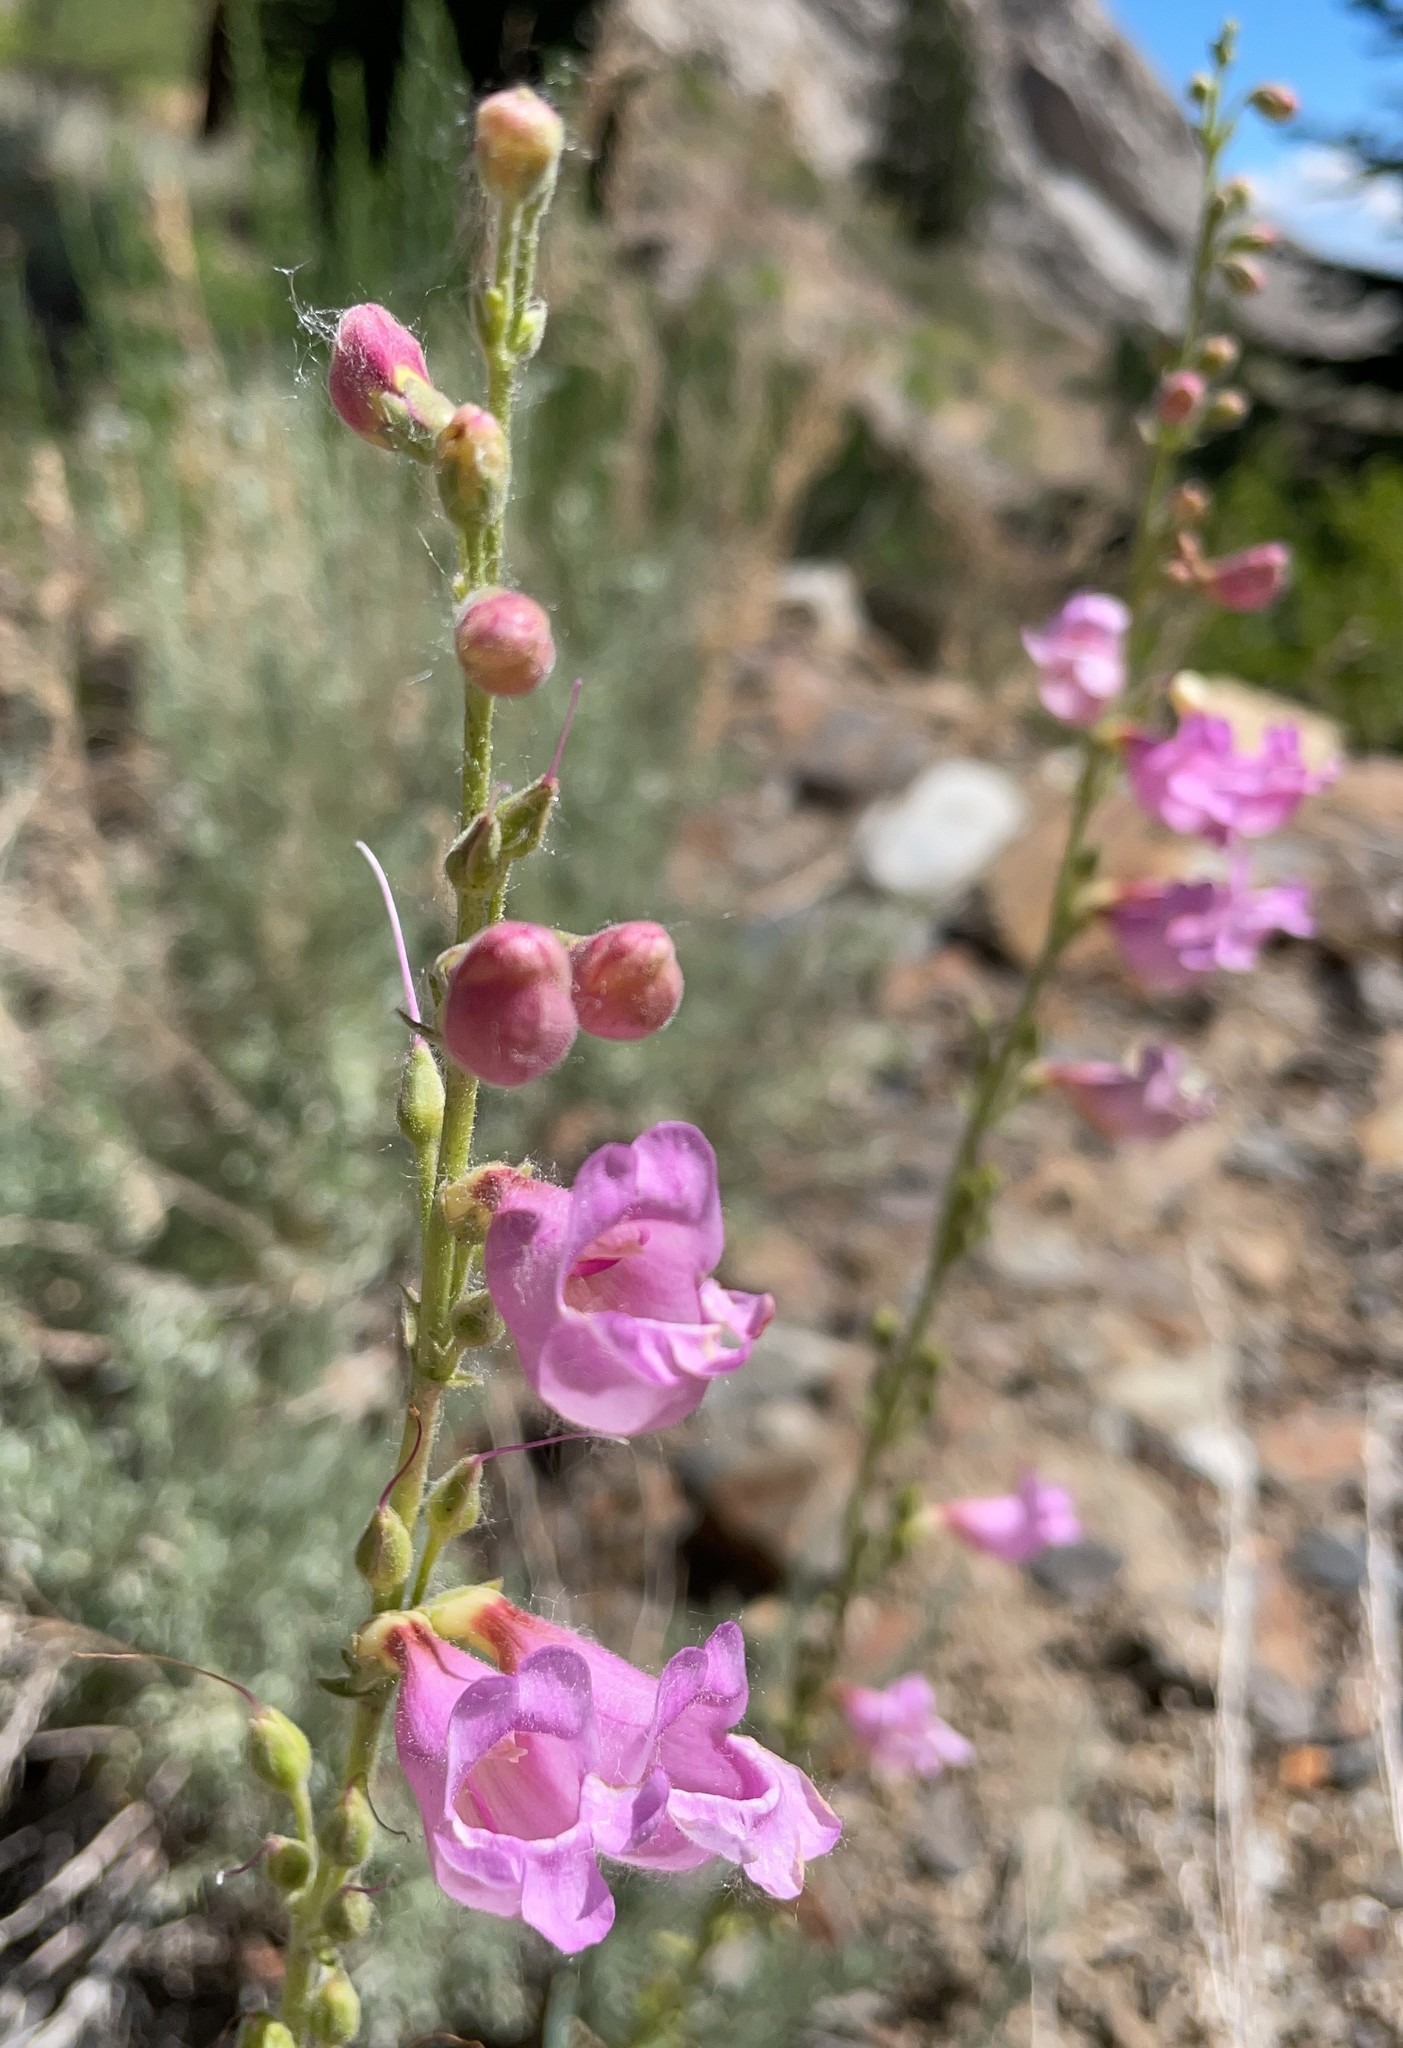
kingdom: Plantae
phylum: Tracheophyta
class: Magnoliopsida
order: Lamiales
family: Plantaginaceae
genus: Penstemon
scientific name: Penstemon floridus
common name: Panamint penstemon
